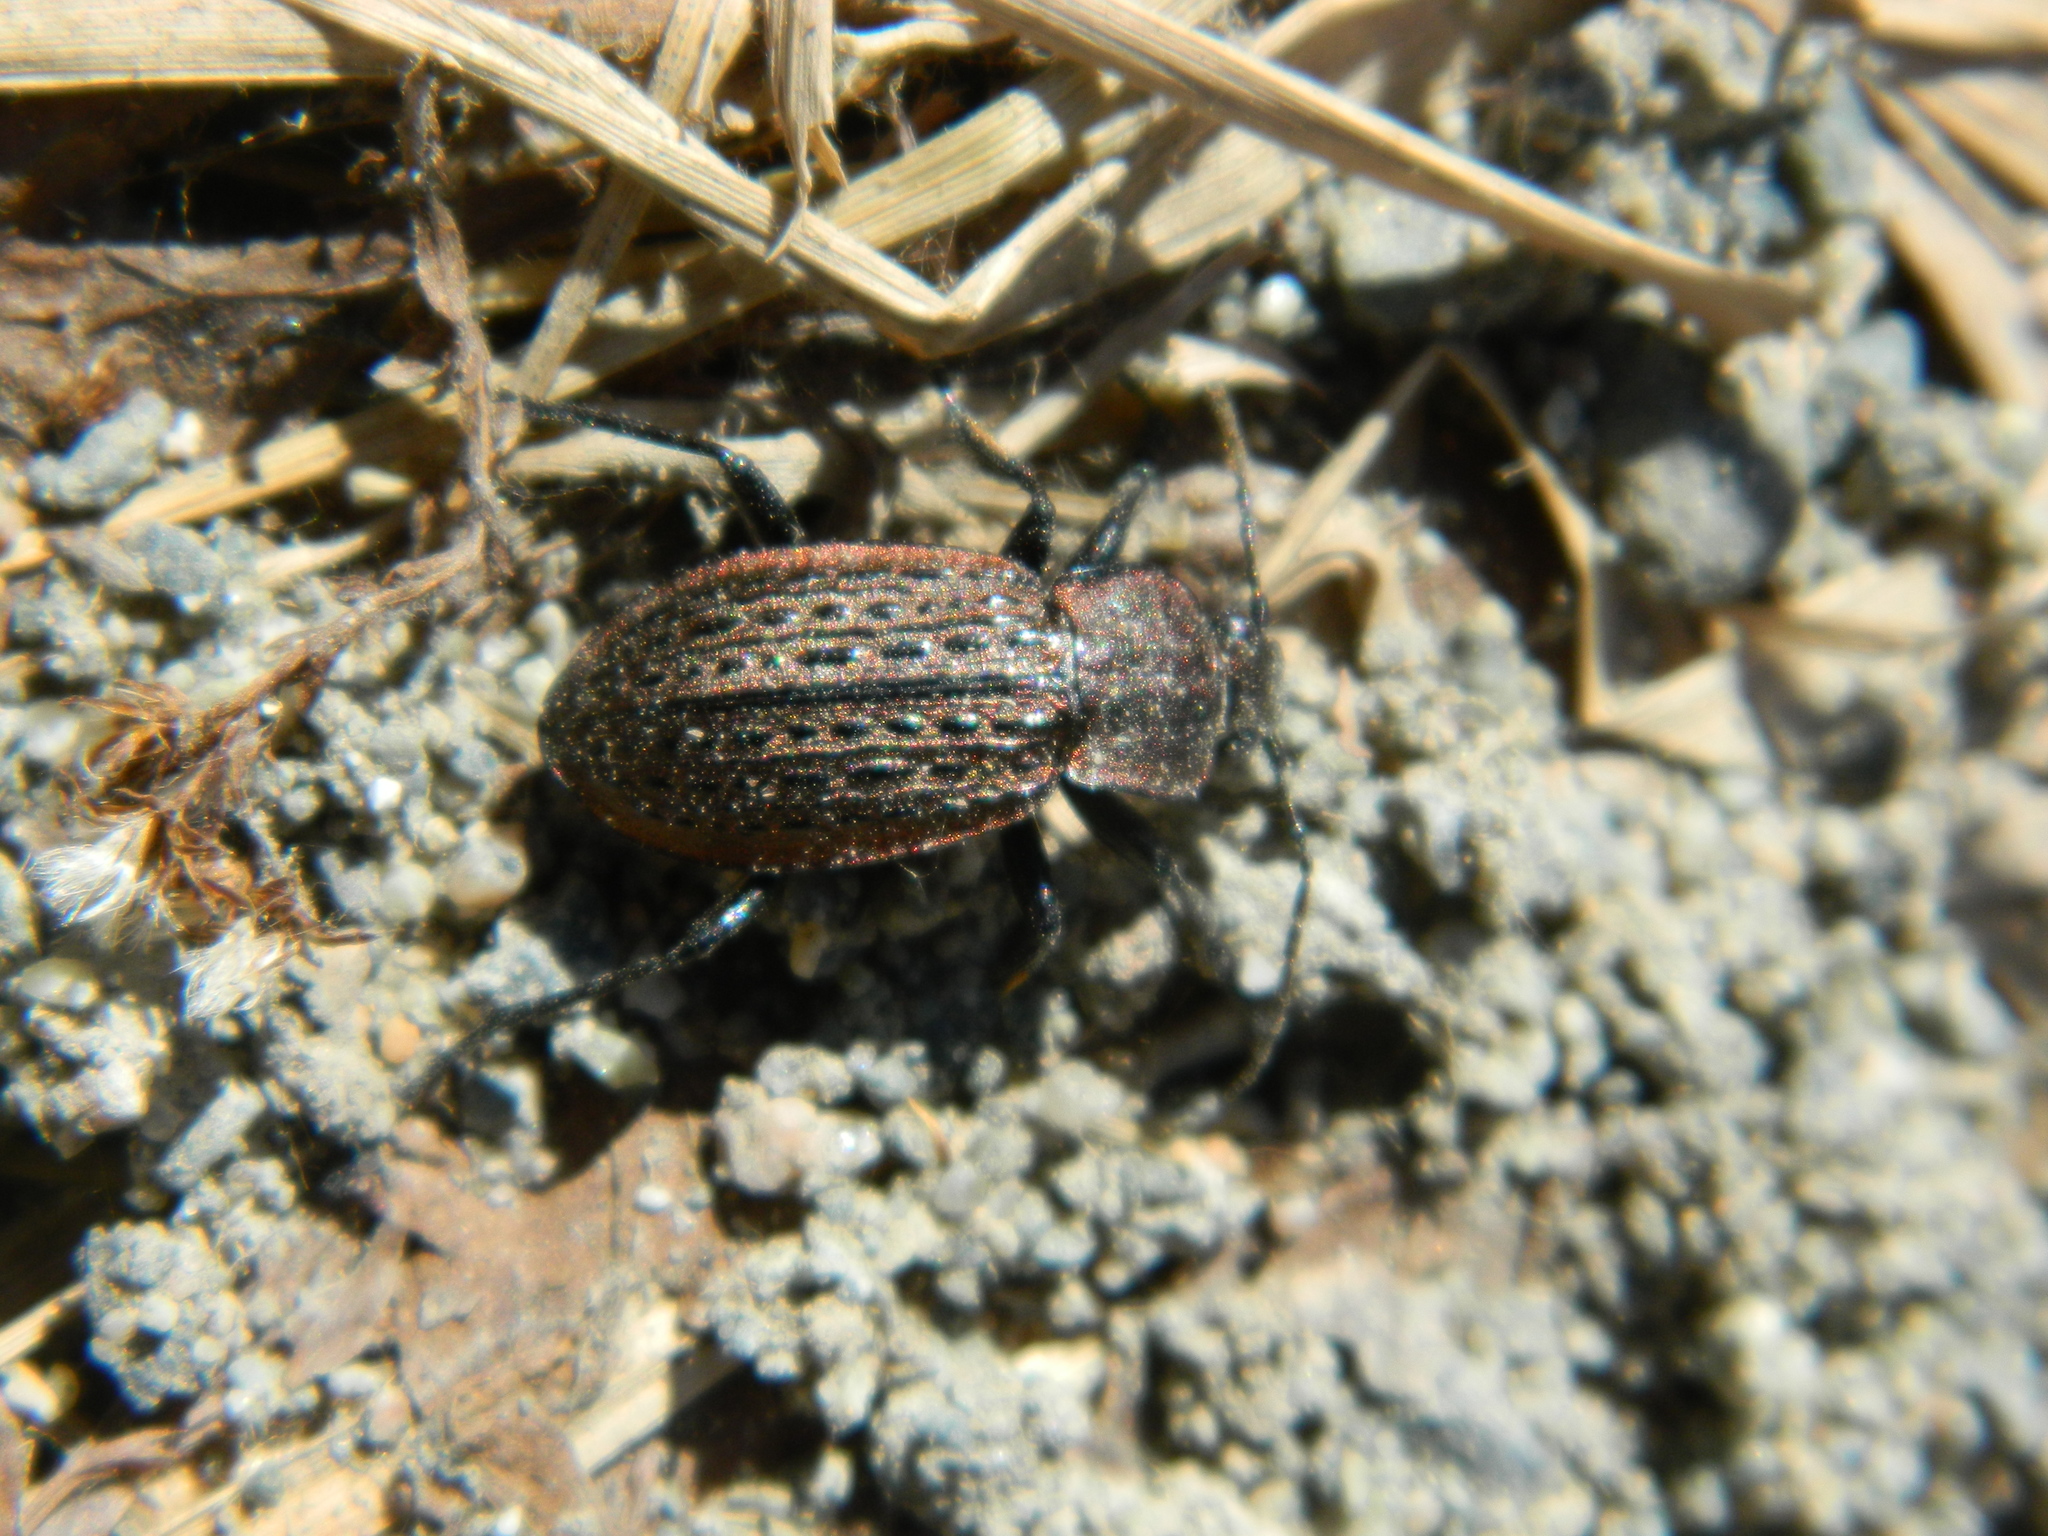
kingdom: Animalia
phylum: Arthropoda
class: Insecta
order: Coleoptera
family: Carabidae
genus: Carabus
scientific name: Carabus maeander
